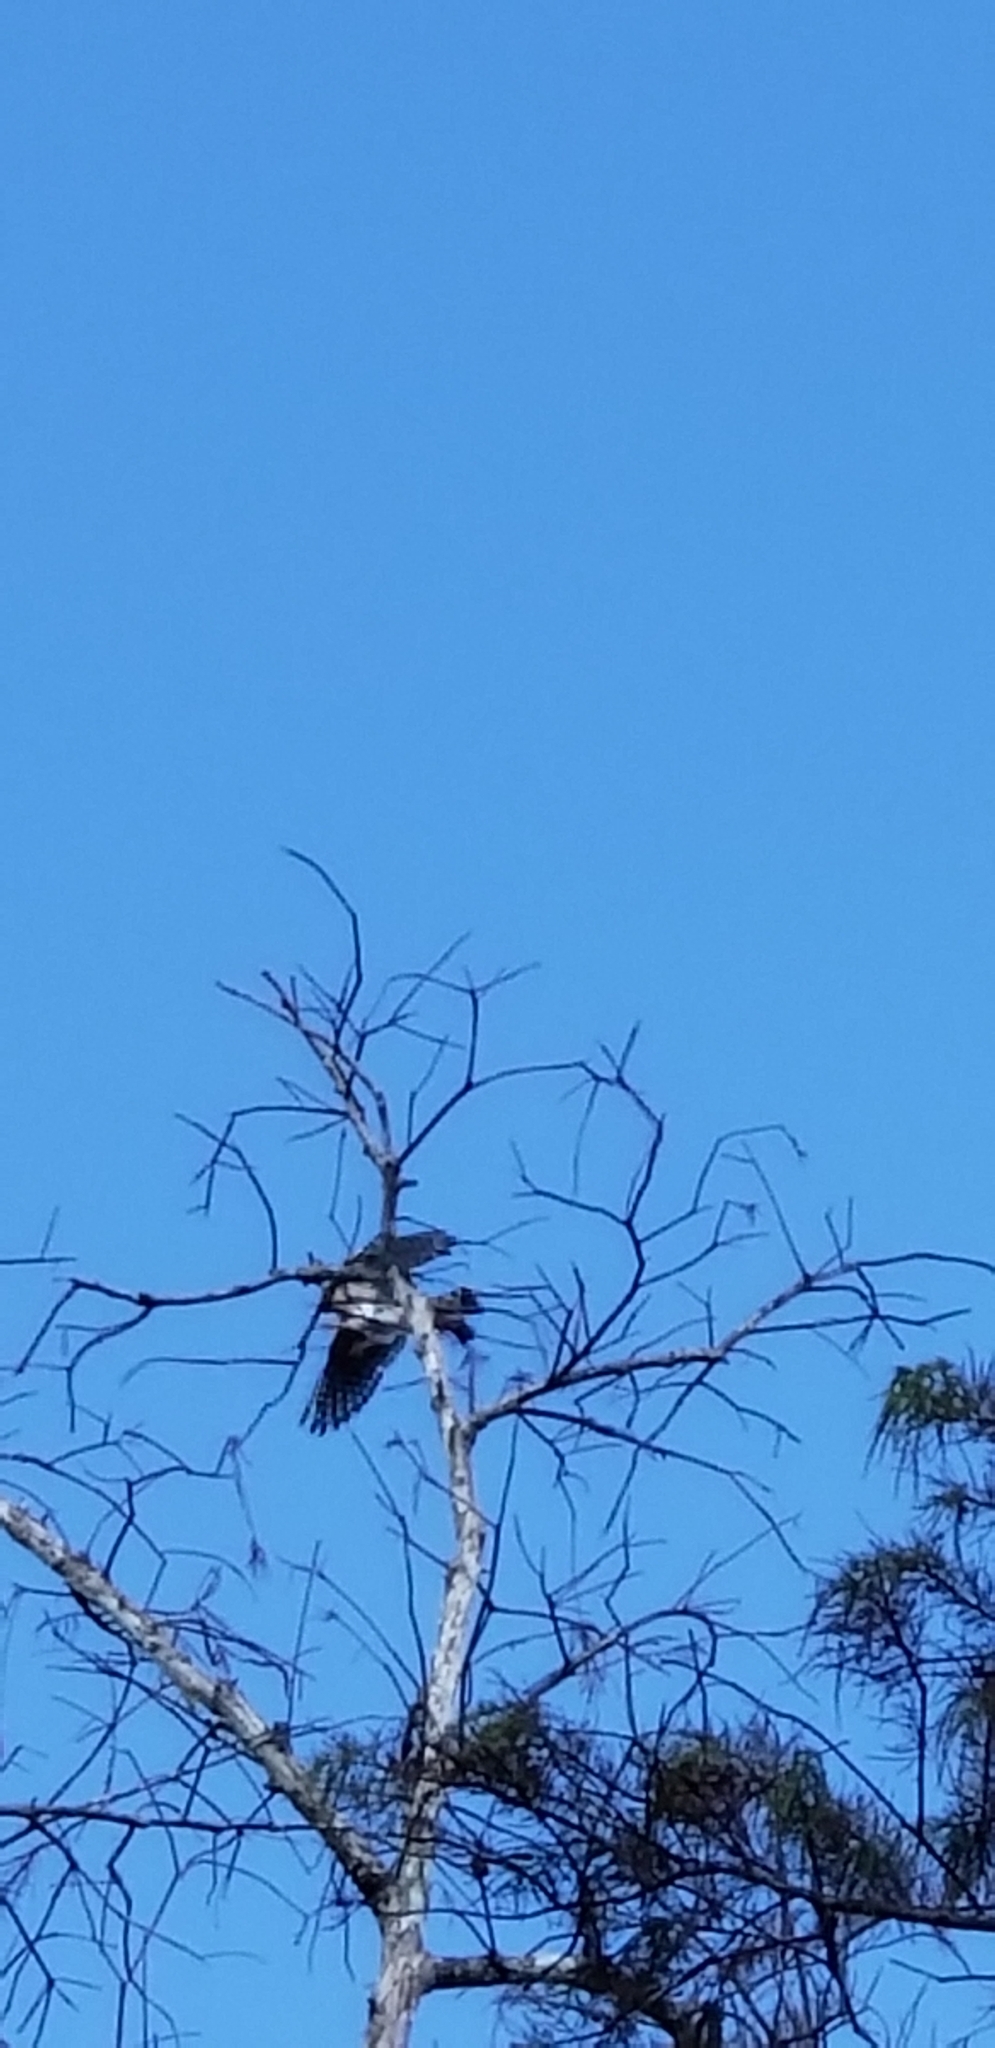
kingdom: Animalia
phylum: Chordata
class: Aves
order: Falconiformes
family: Falconidae
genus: Falco
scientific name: Falco sparverius
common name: American kestrel
